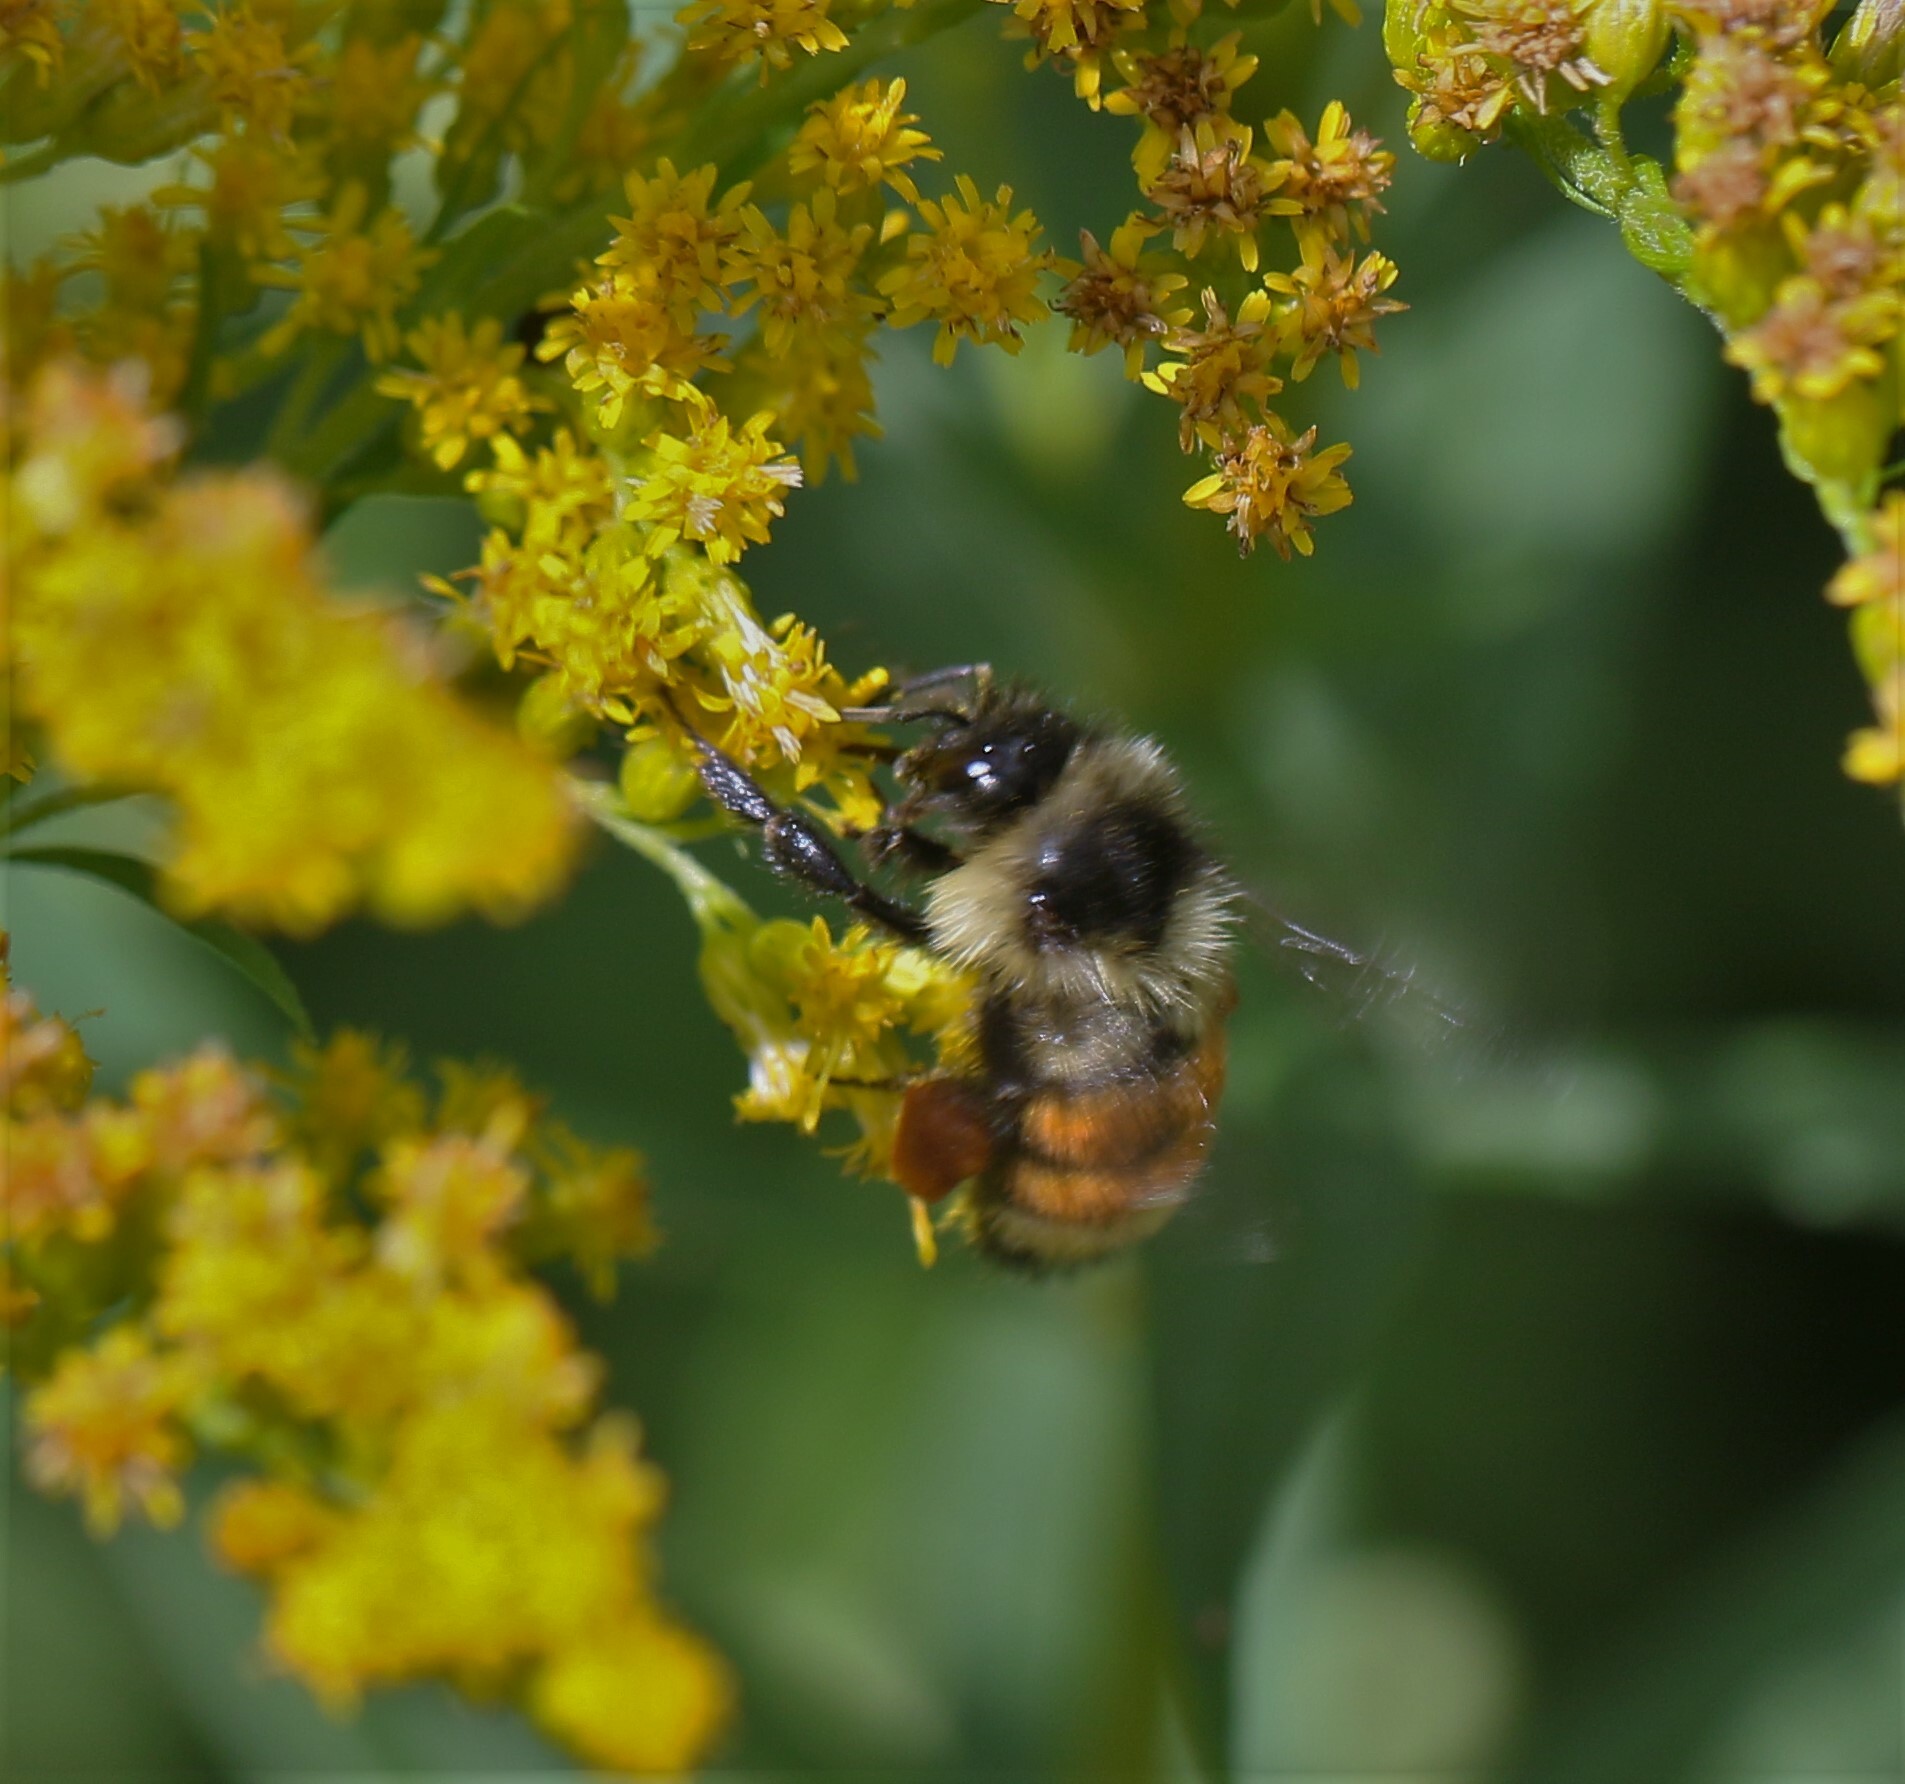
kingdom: Animalia
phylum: Arthropoda
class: Insecta
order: Hymenoptera
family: Apidae
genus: Bombus
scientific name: Bombus ternarius
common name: Tri-colored bumble bee
